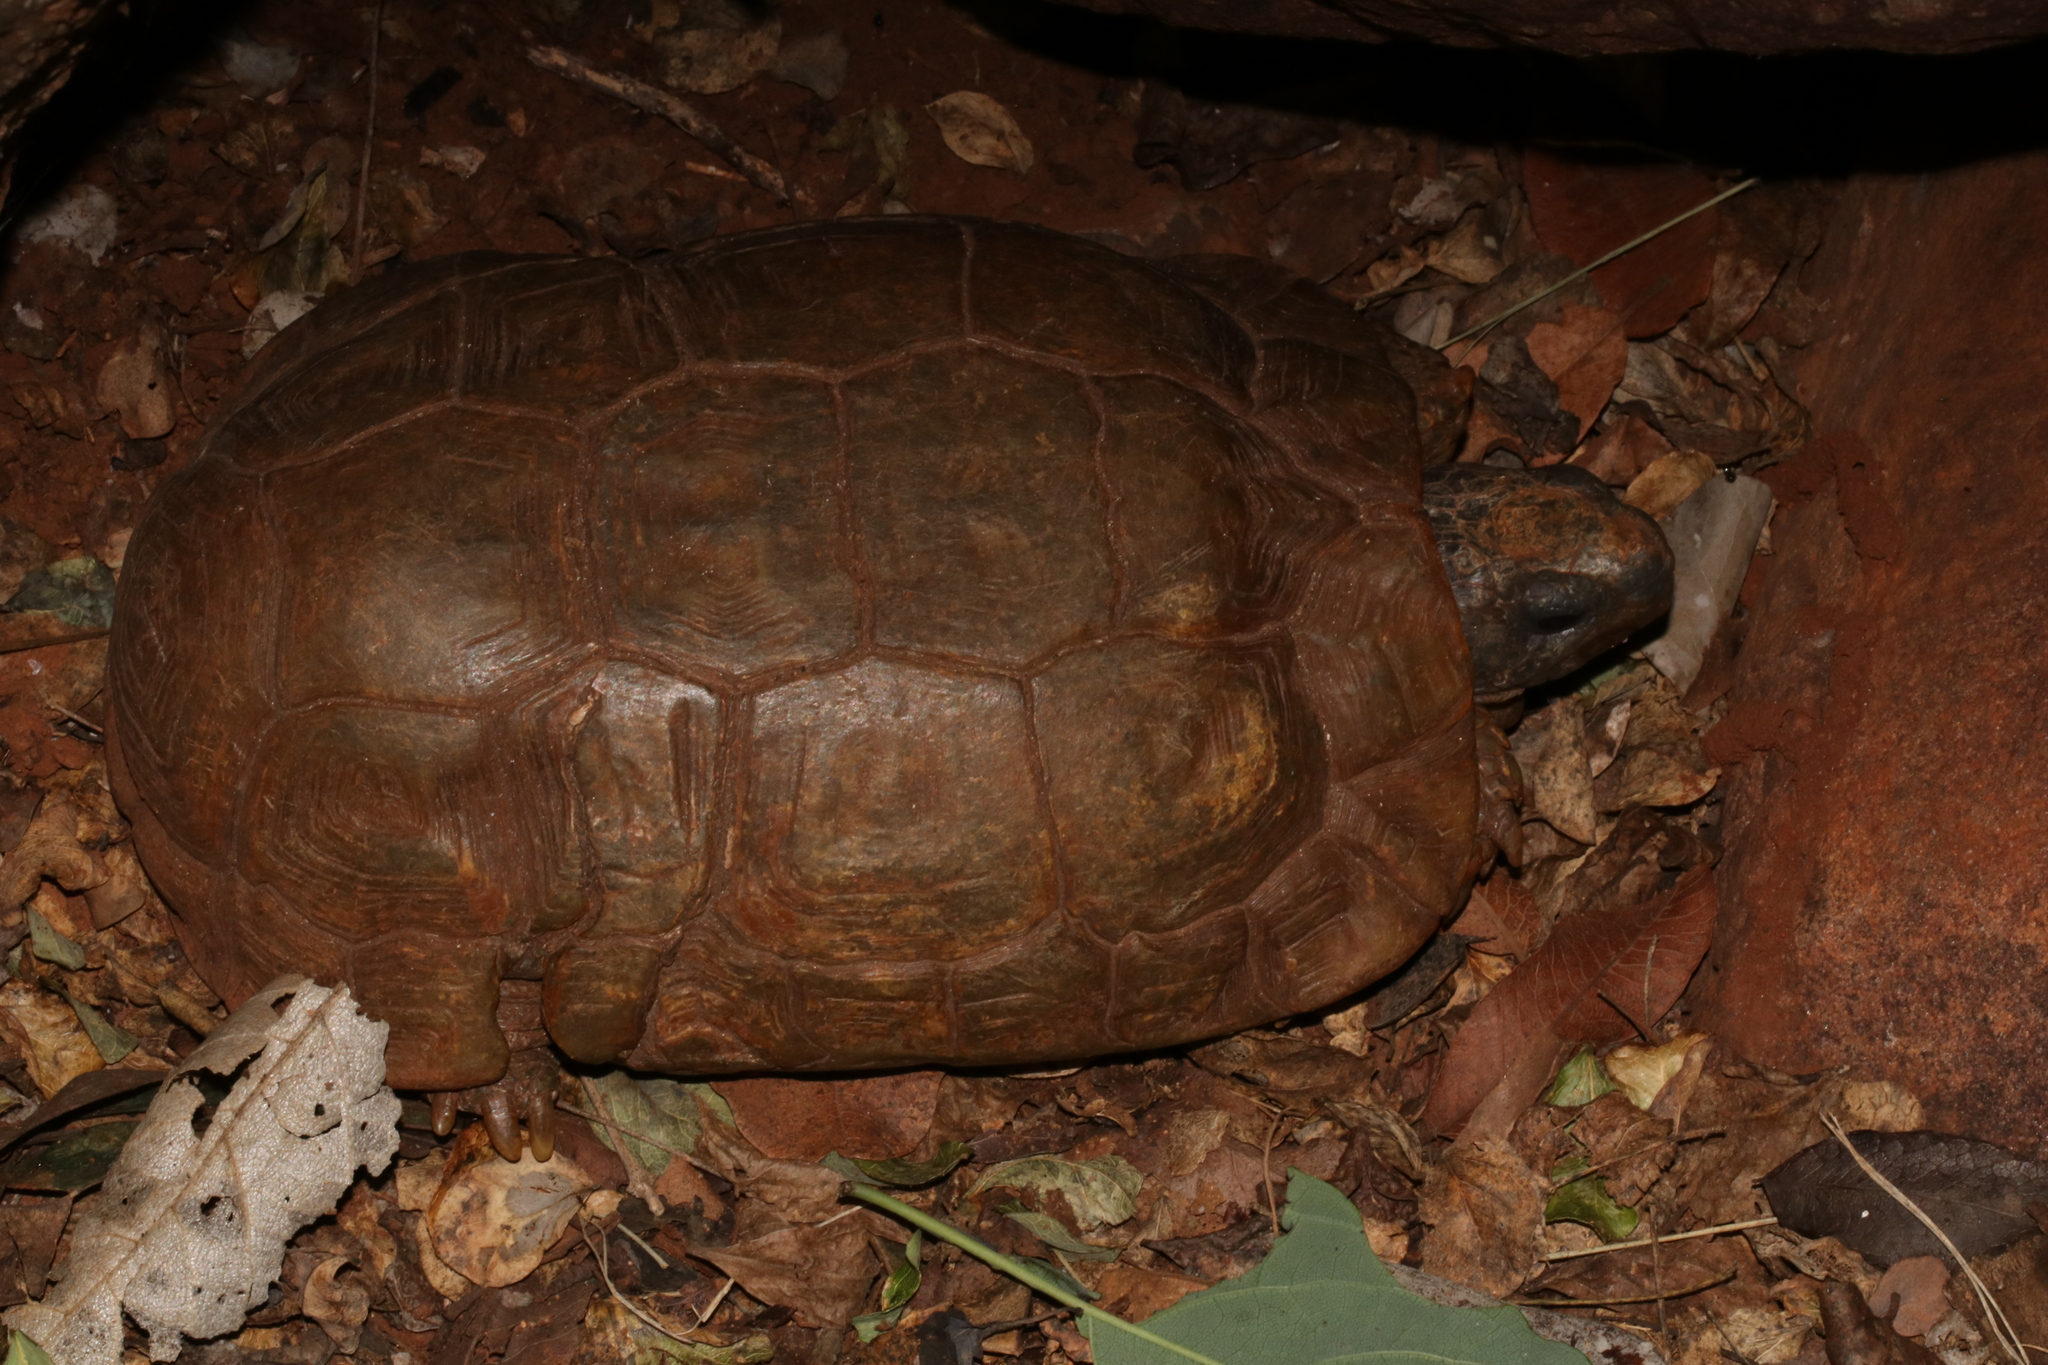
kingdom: Animalia
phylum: Chordata
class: Testudines
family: Testudinidae
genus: Kinixys
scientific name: Kinixys spekii
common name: Speke's hingeback tortoise
